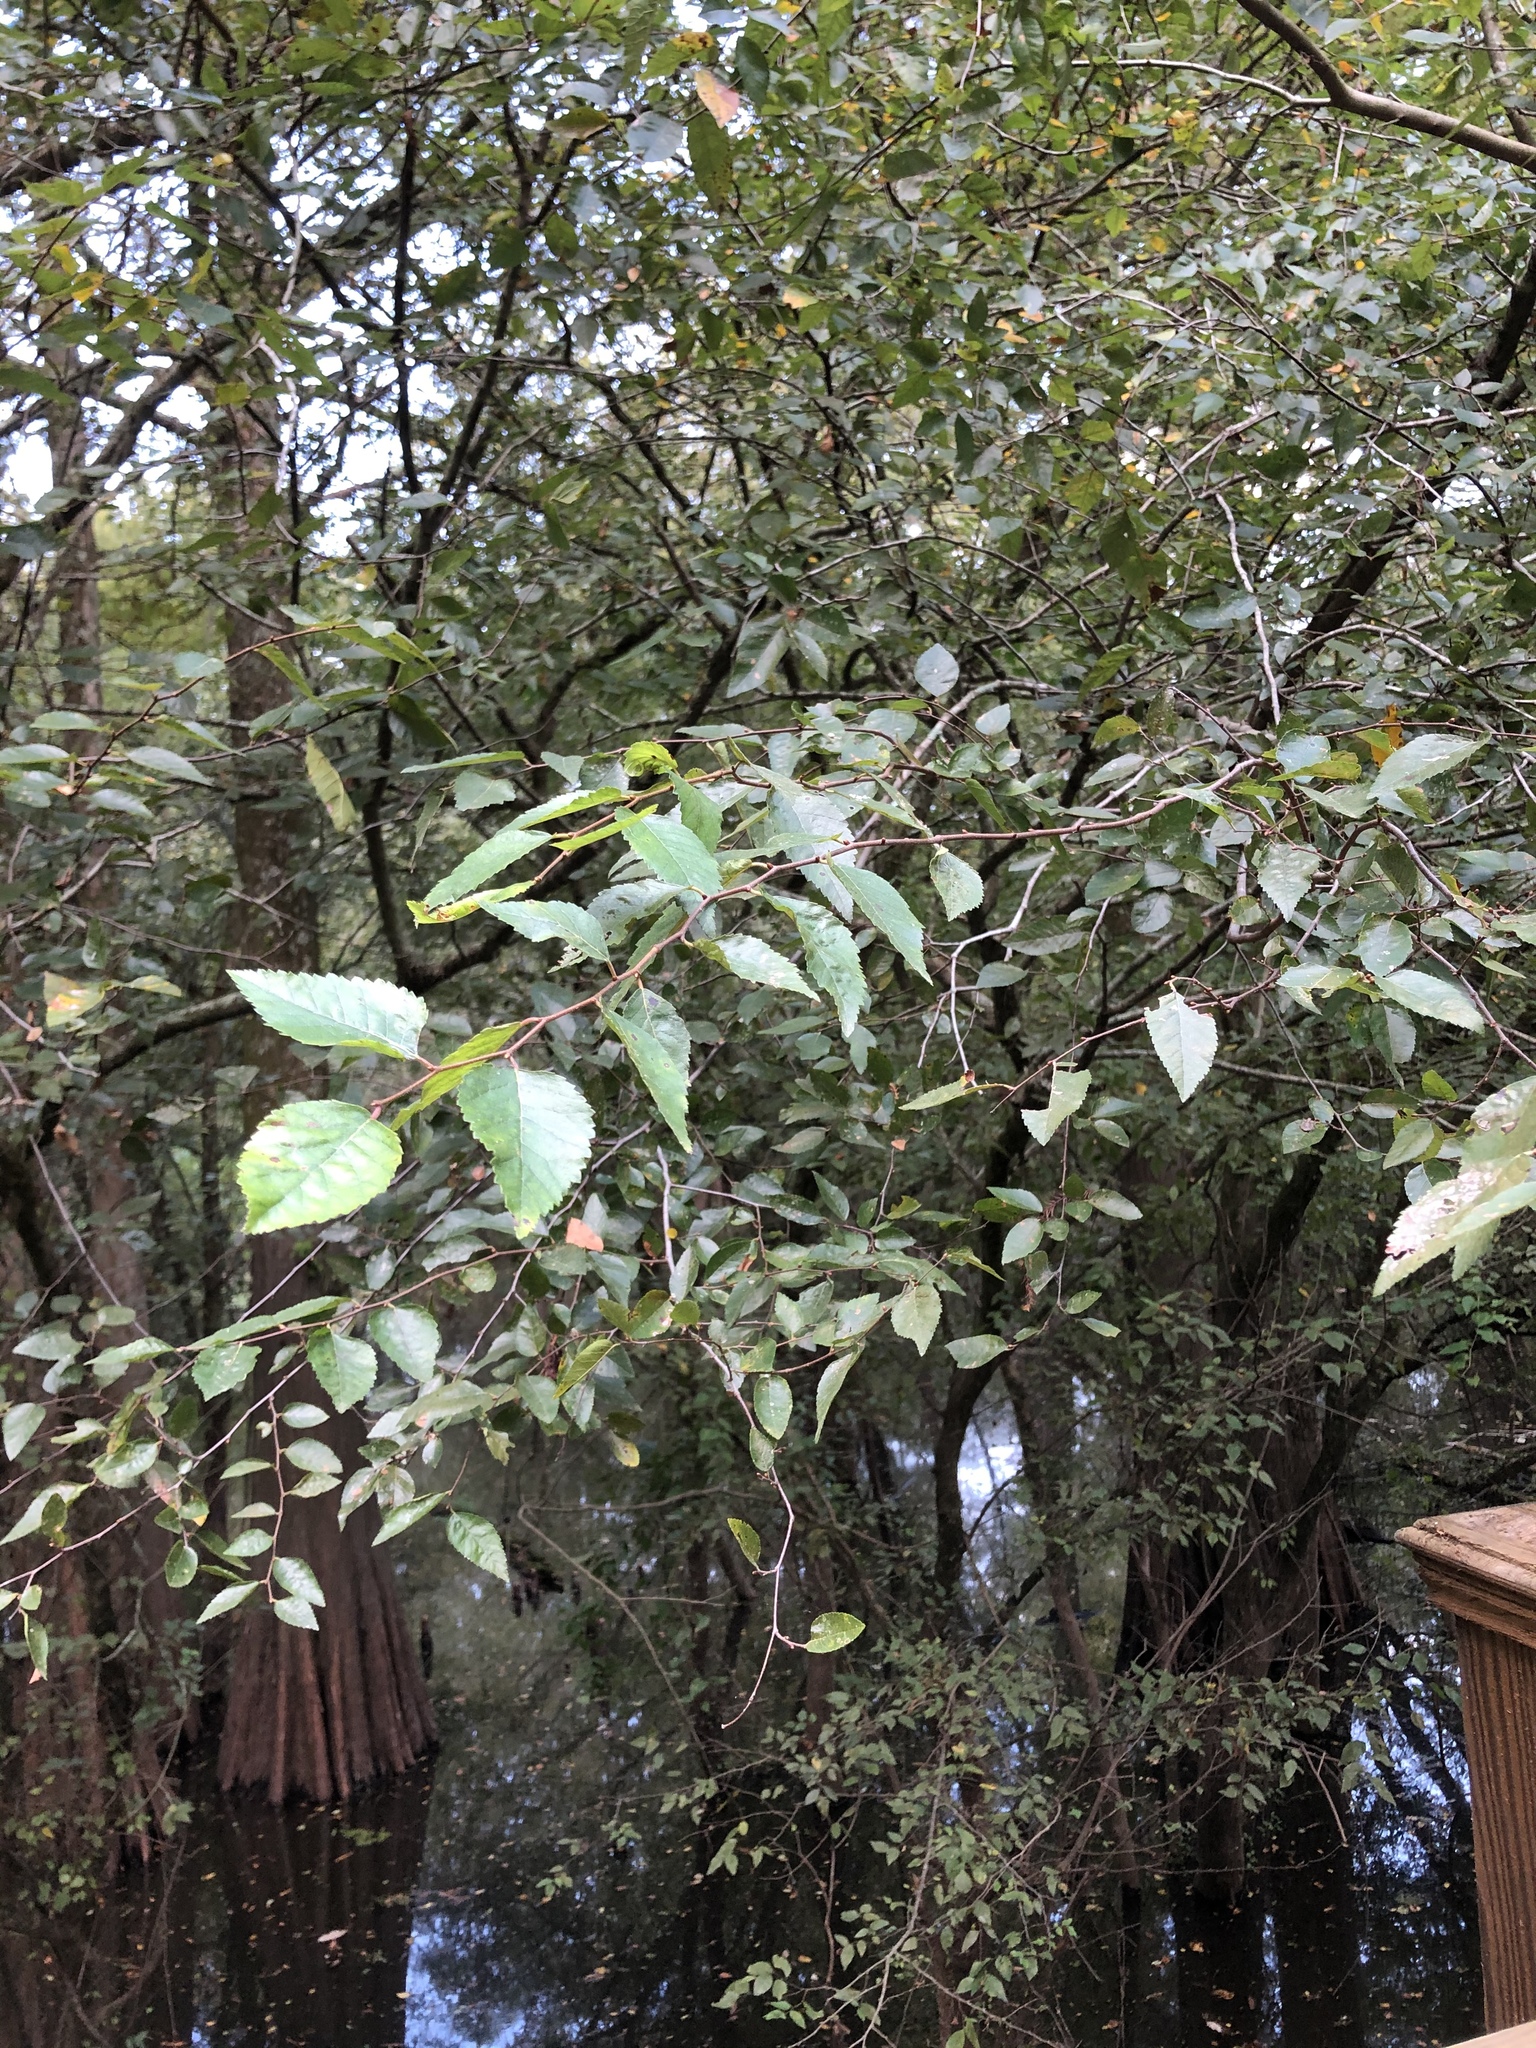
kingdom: Plantae
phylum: Tracheophyta
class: Magnoliopsida
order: Rosales
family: Ulmaceae
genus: Planera
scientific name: Planera aquatica
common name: Water-elm
